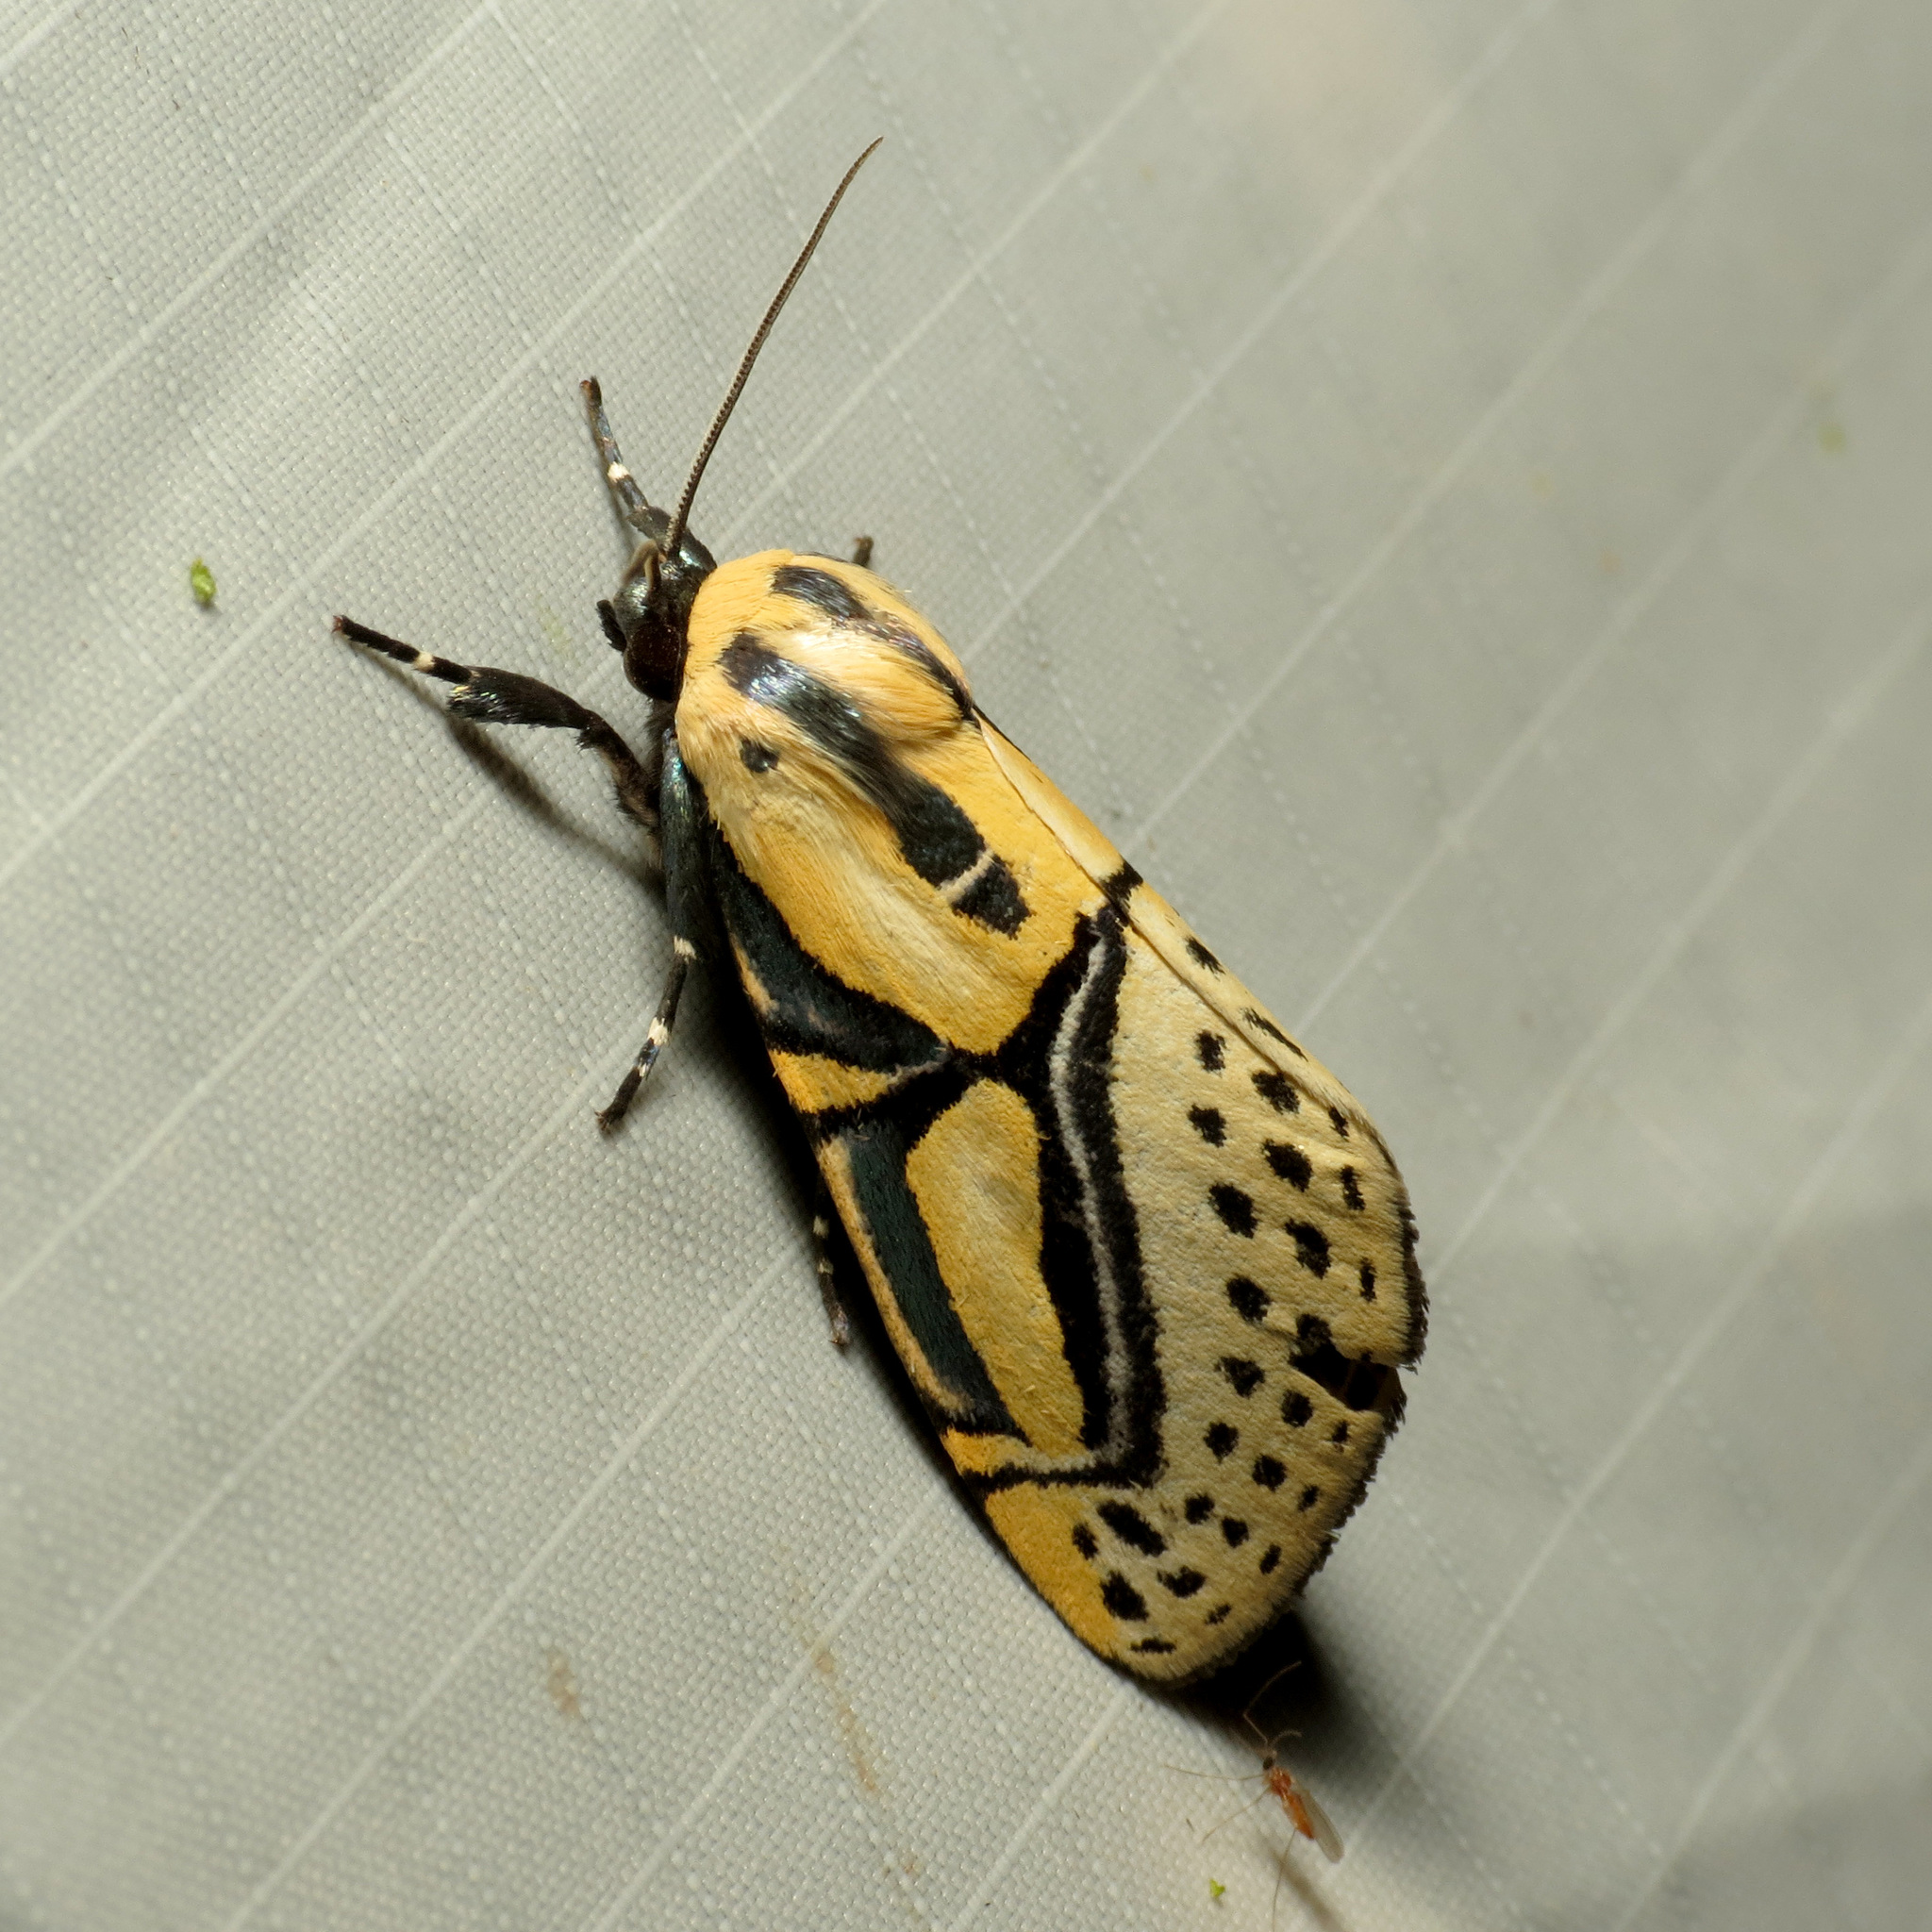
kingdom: Animalia
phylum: Arthropoda
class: Insecta
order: Lepidoptera
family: Erebidae
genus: Diphthera
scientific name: Diphthera festiva
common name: Hieroglyphic moth
